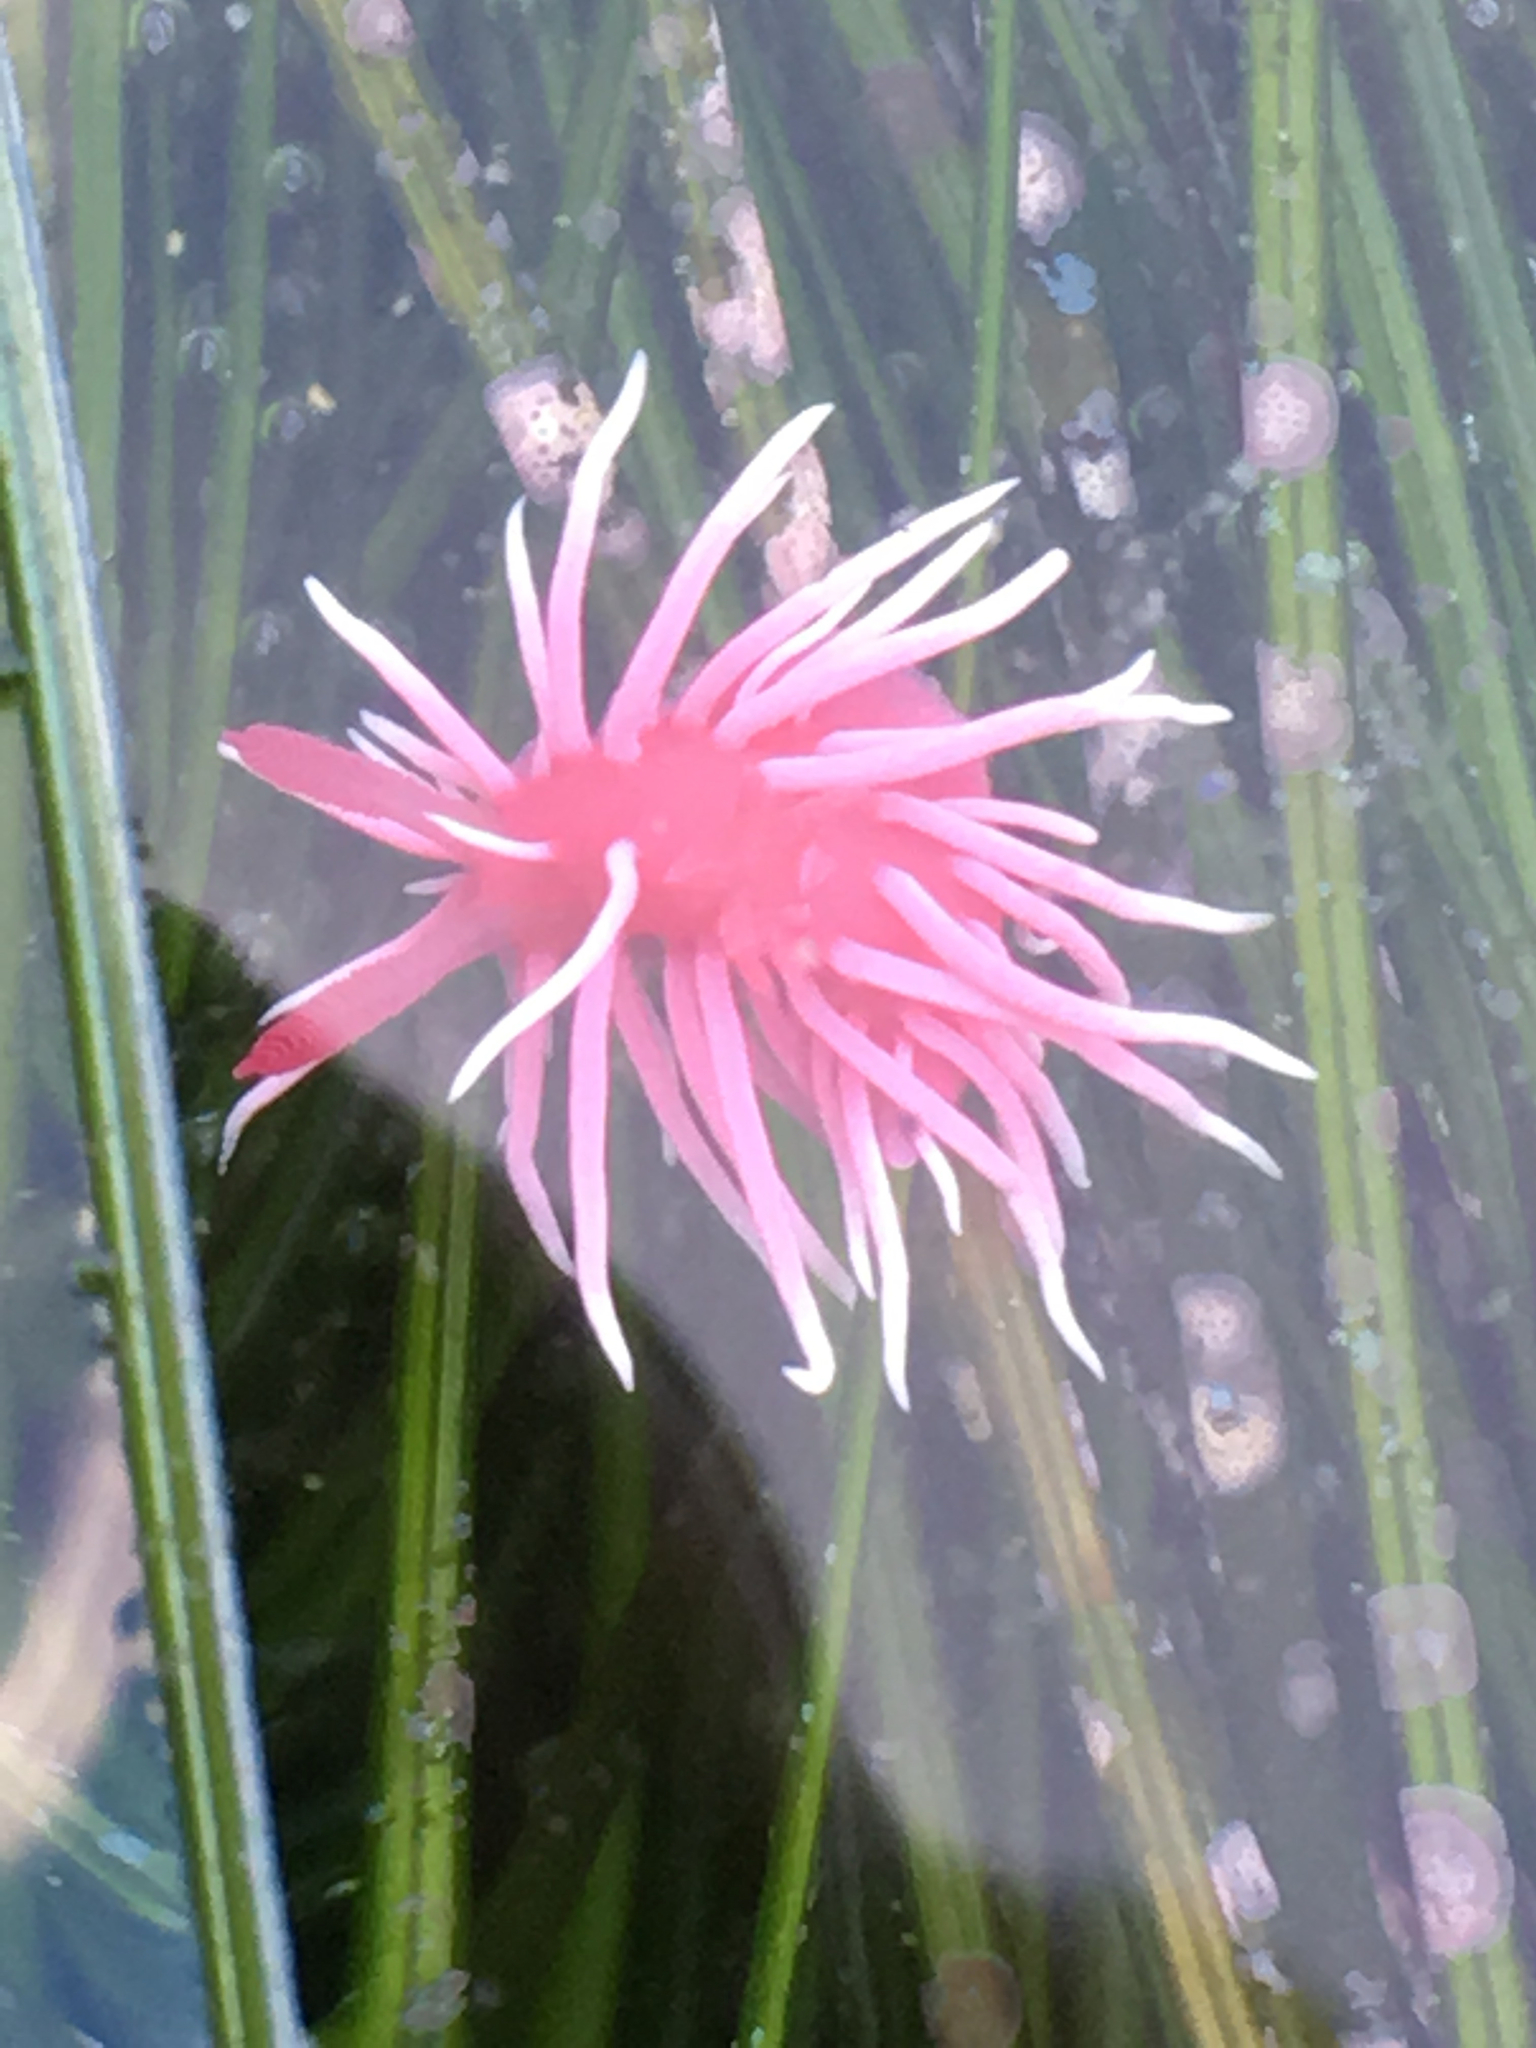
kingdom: Animalia
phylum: Mollusca
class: Gastropoda
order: Nudibranchia
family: Goniodorididae
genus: Okenia
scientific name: Okenia
